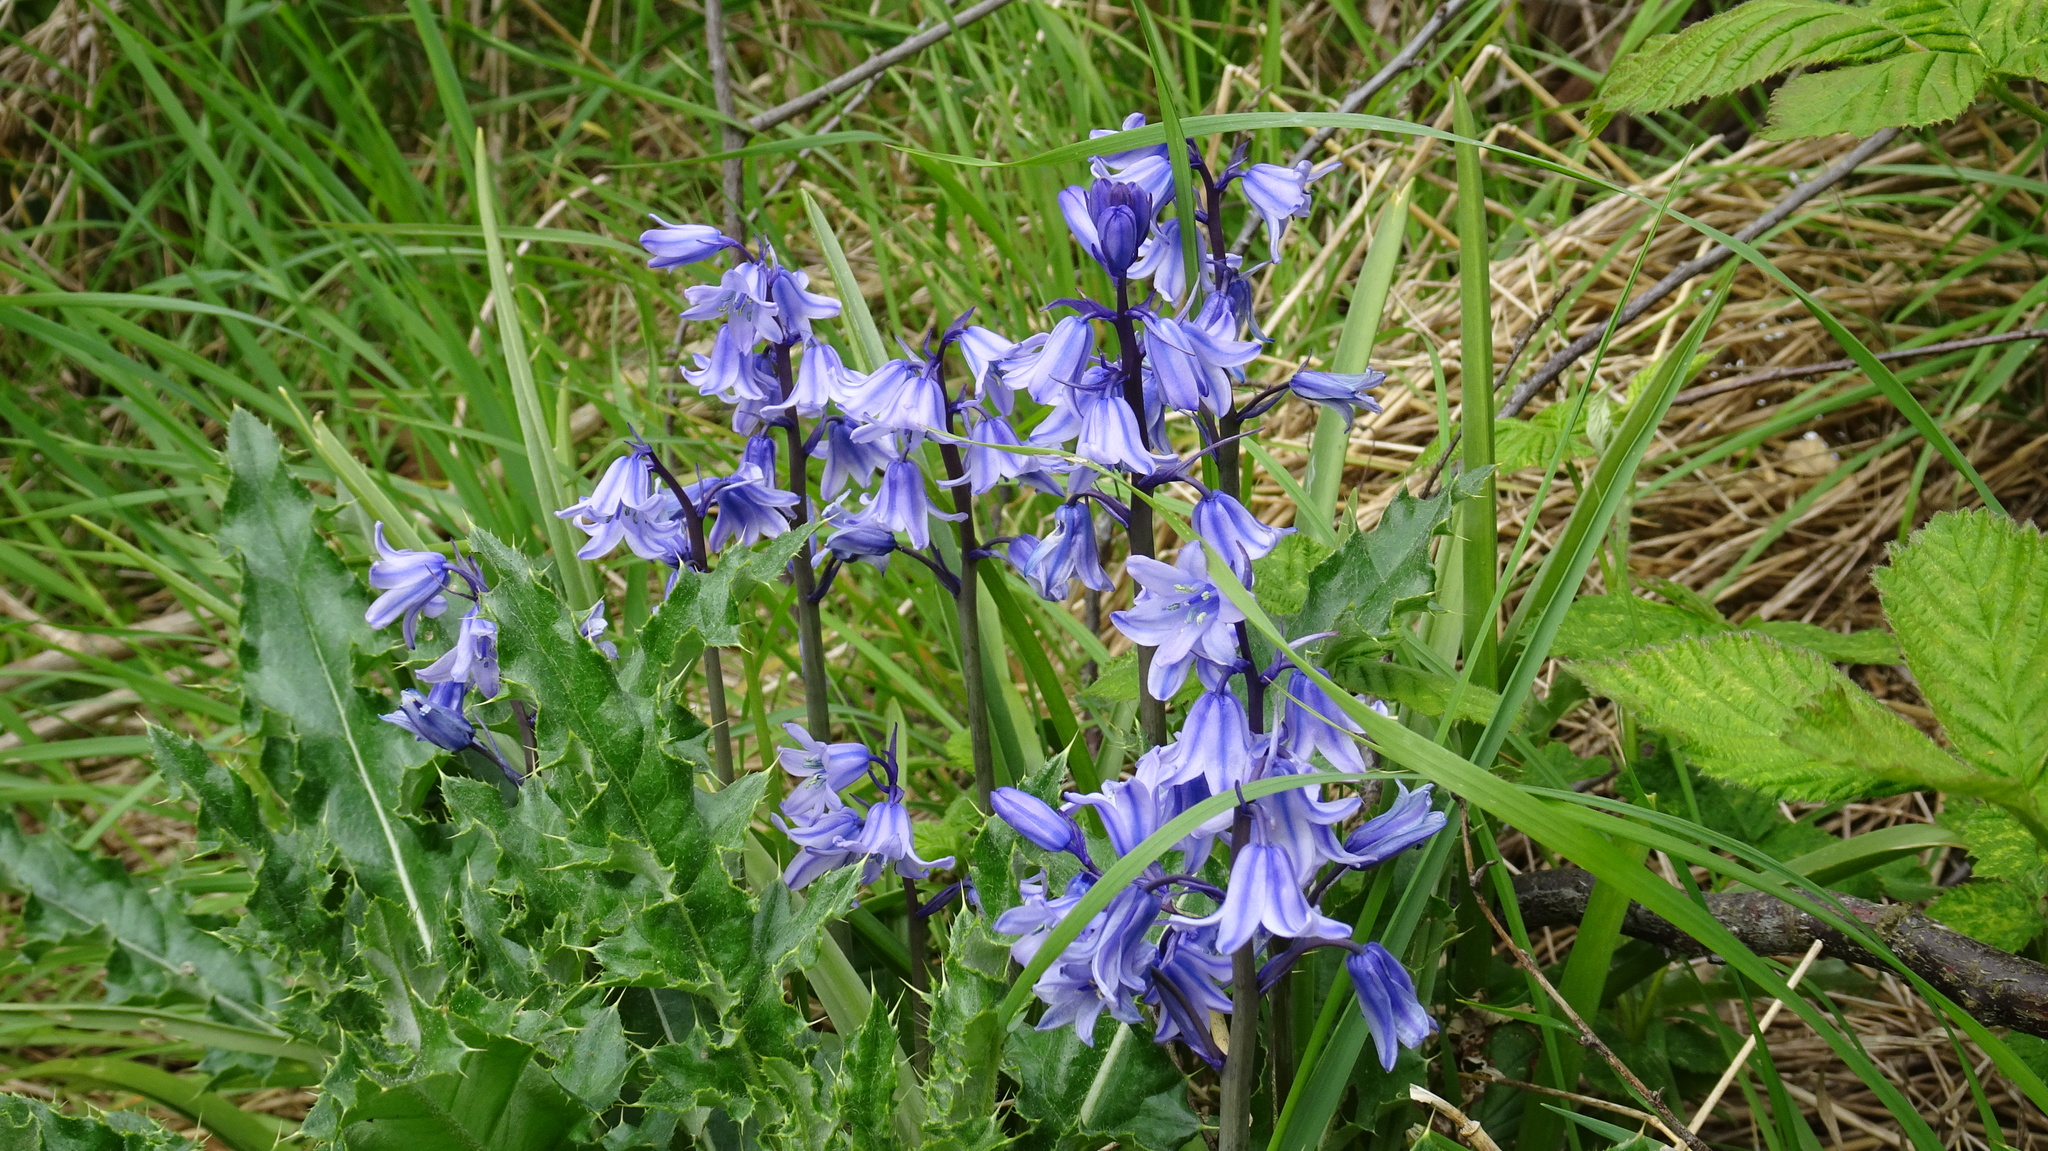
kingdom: Plantae
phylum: Tracheophyta
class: Liliopsida
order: Asparagales
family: Asparagaceae
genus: Hyacinthoides
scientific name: Hyacinthoides massartiana
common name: Hyacinthoides
